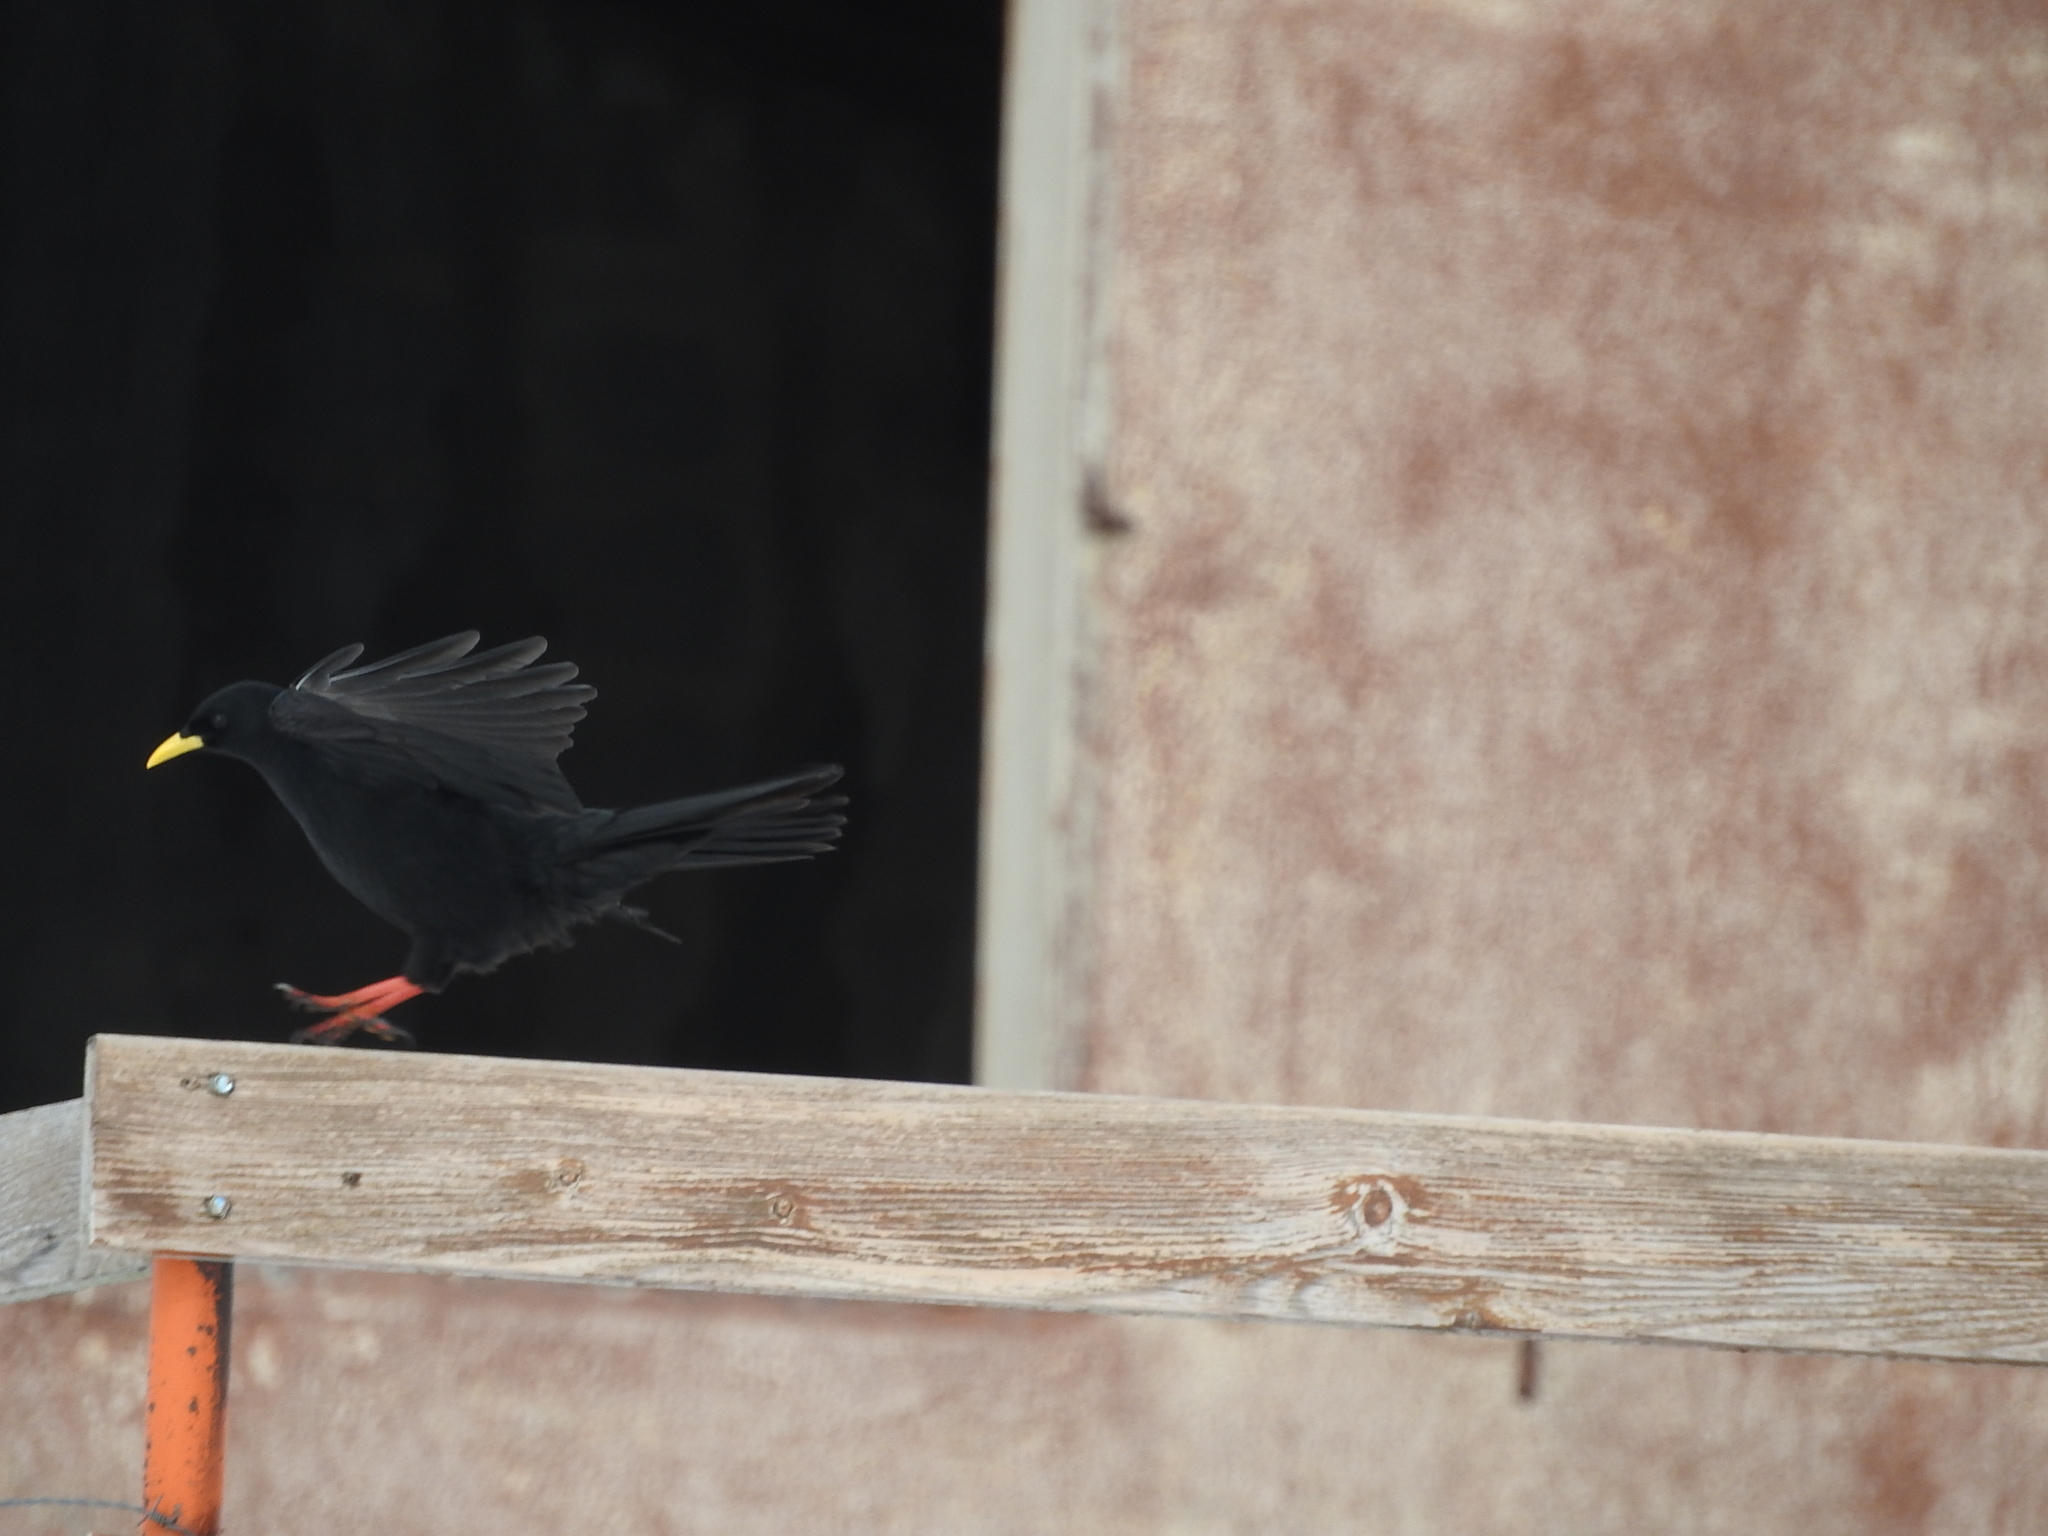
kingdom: Animalia
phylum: Chordata
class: Aves
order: Passeriformes
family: Corvidae
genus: Pyrrhocorax
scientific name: Pyrrhocorax graculus
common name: Alpine chough
